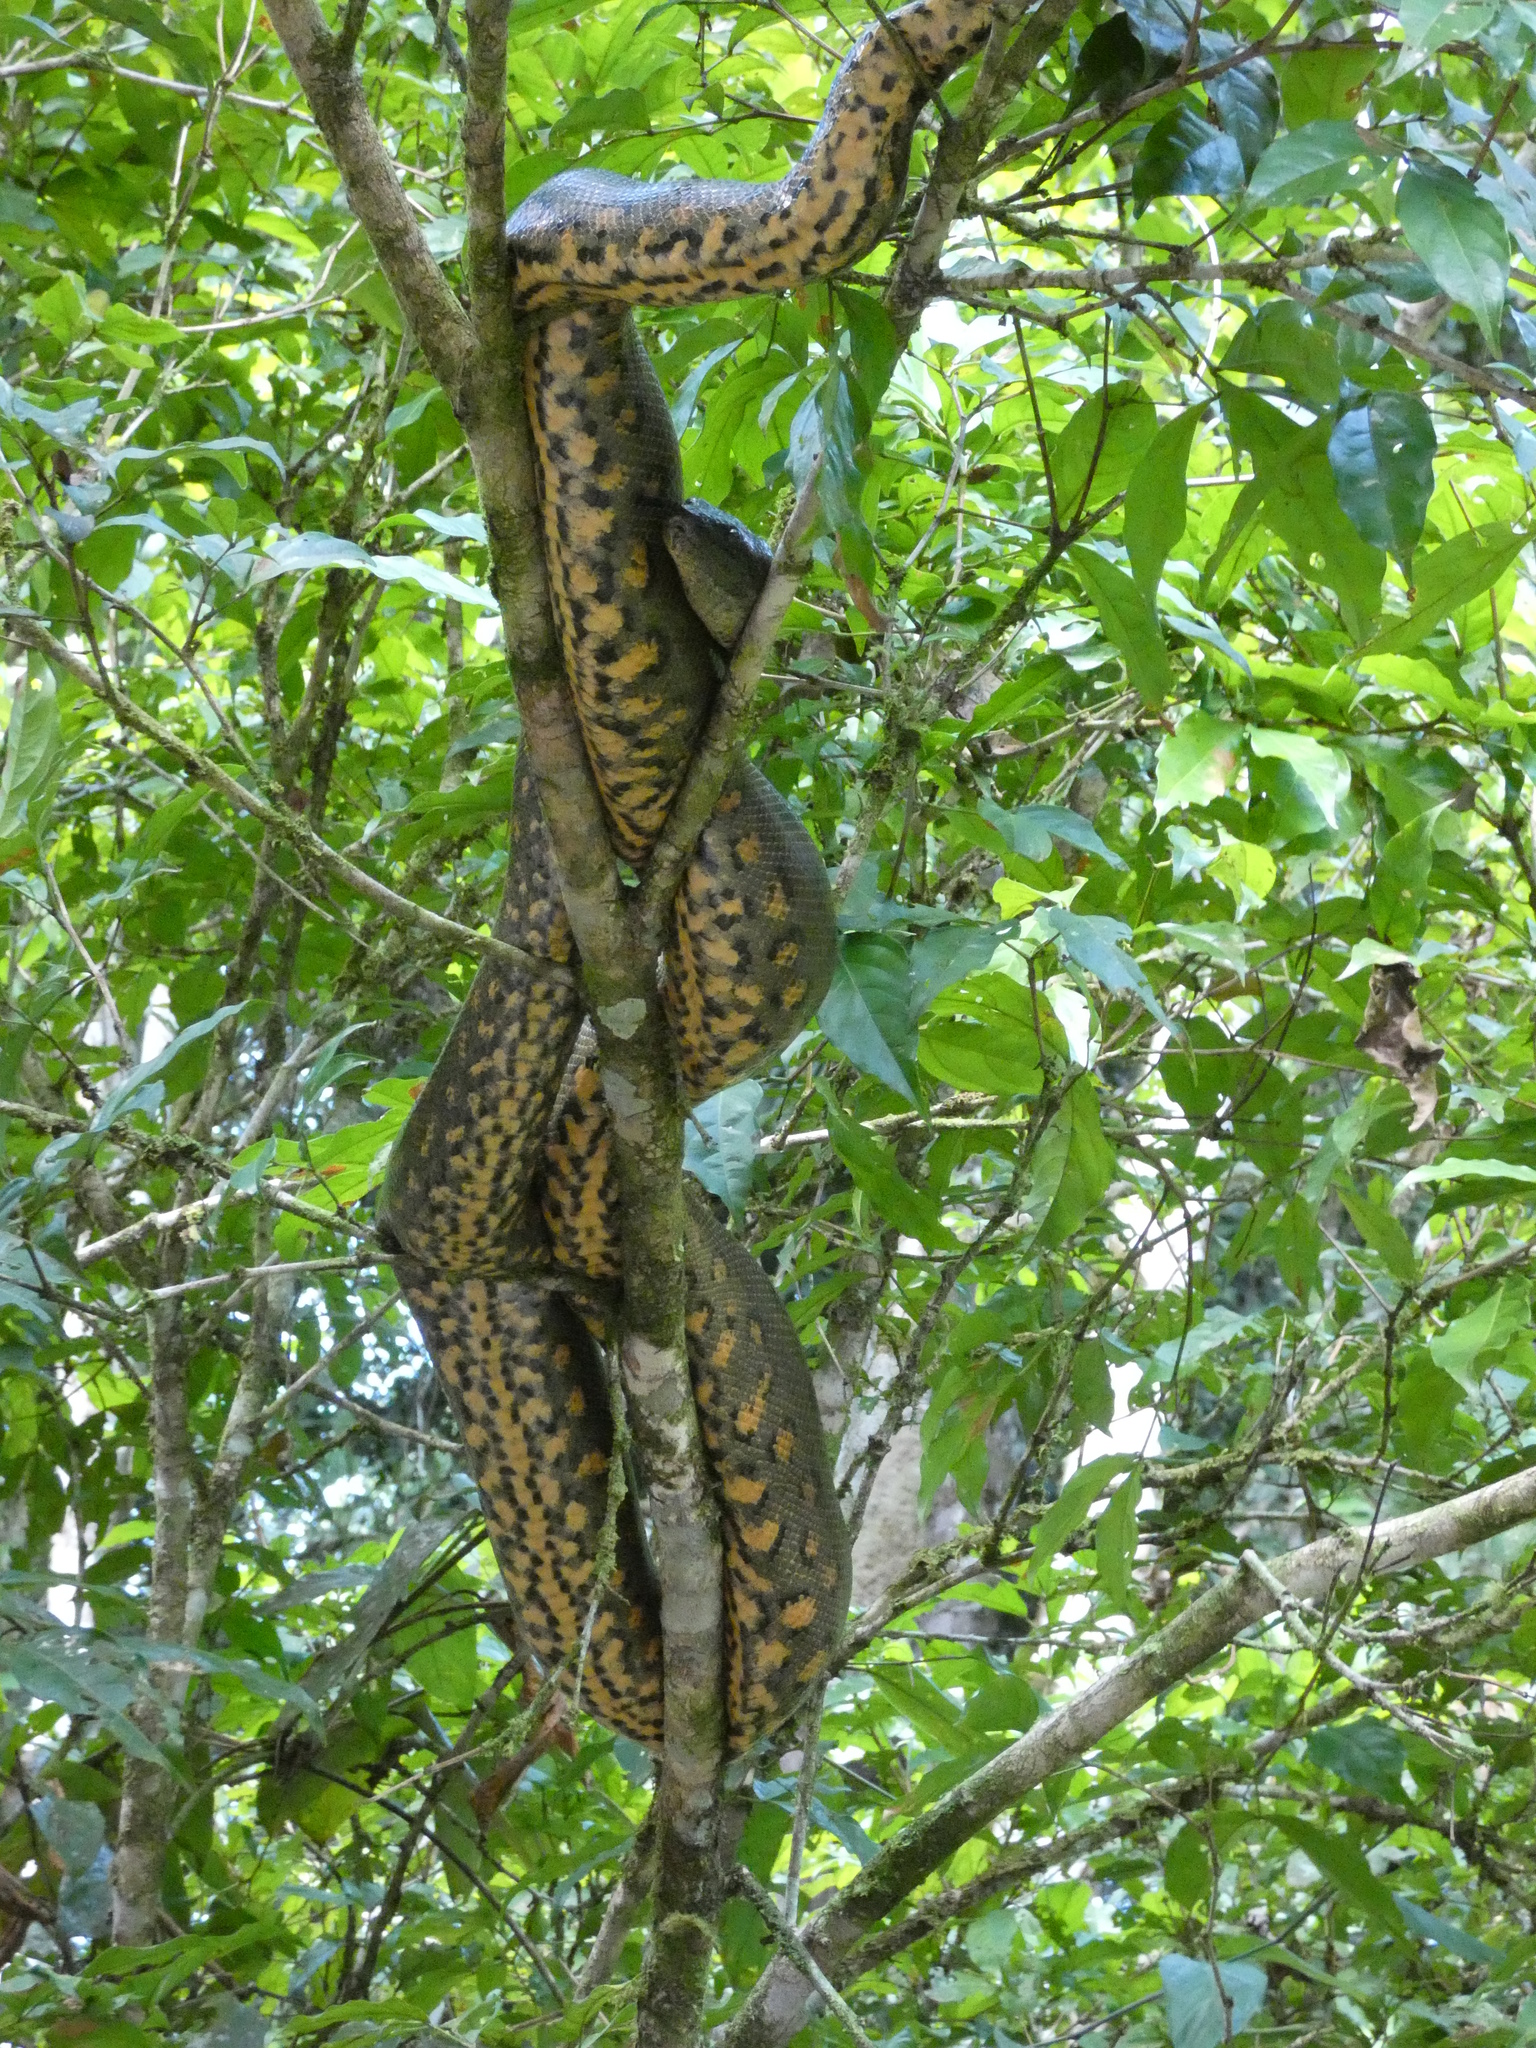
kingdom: Animalia
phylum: Chordata
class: Squamata
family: Boidae
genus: Eunectes
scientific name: Eunectes murinus
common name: Anaconda
